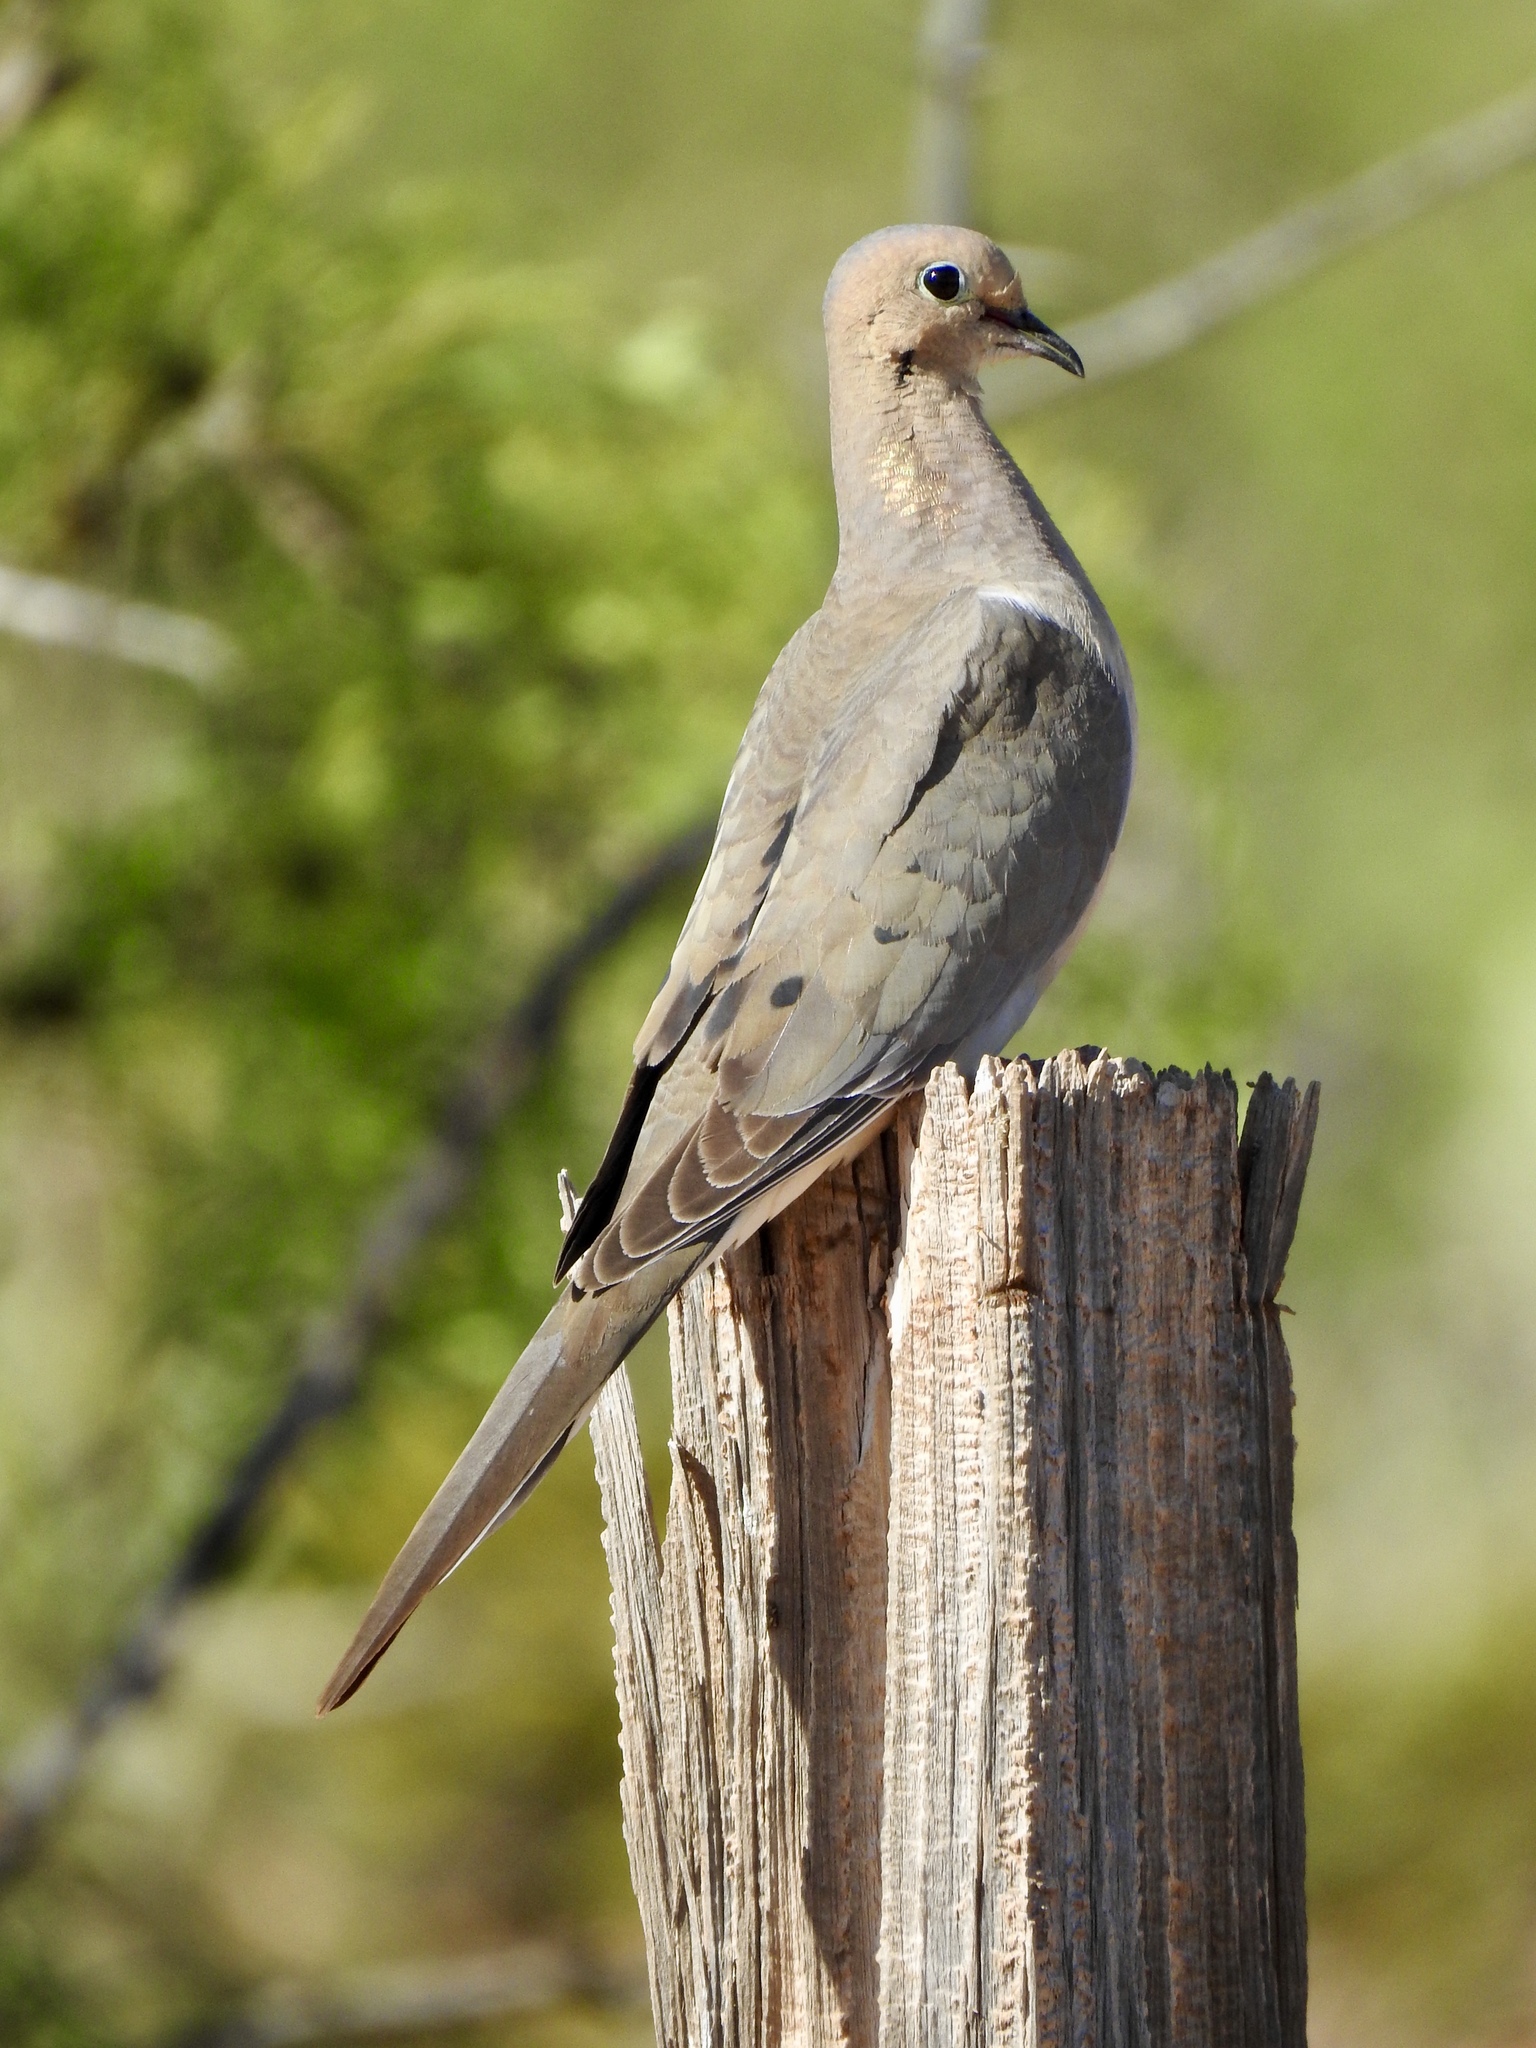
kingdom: Animalia
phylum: Chordata
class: Aves
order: Columbiformes
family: Columbidae
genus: Zenaida
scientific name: Zenaida macroura
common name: Mourning dove
